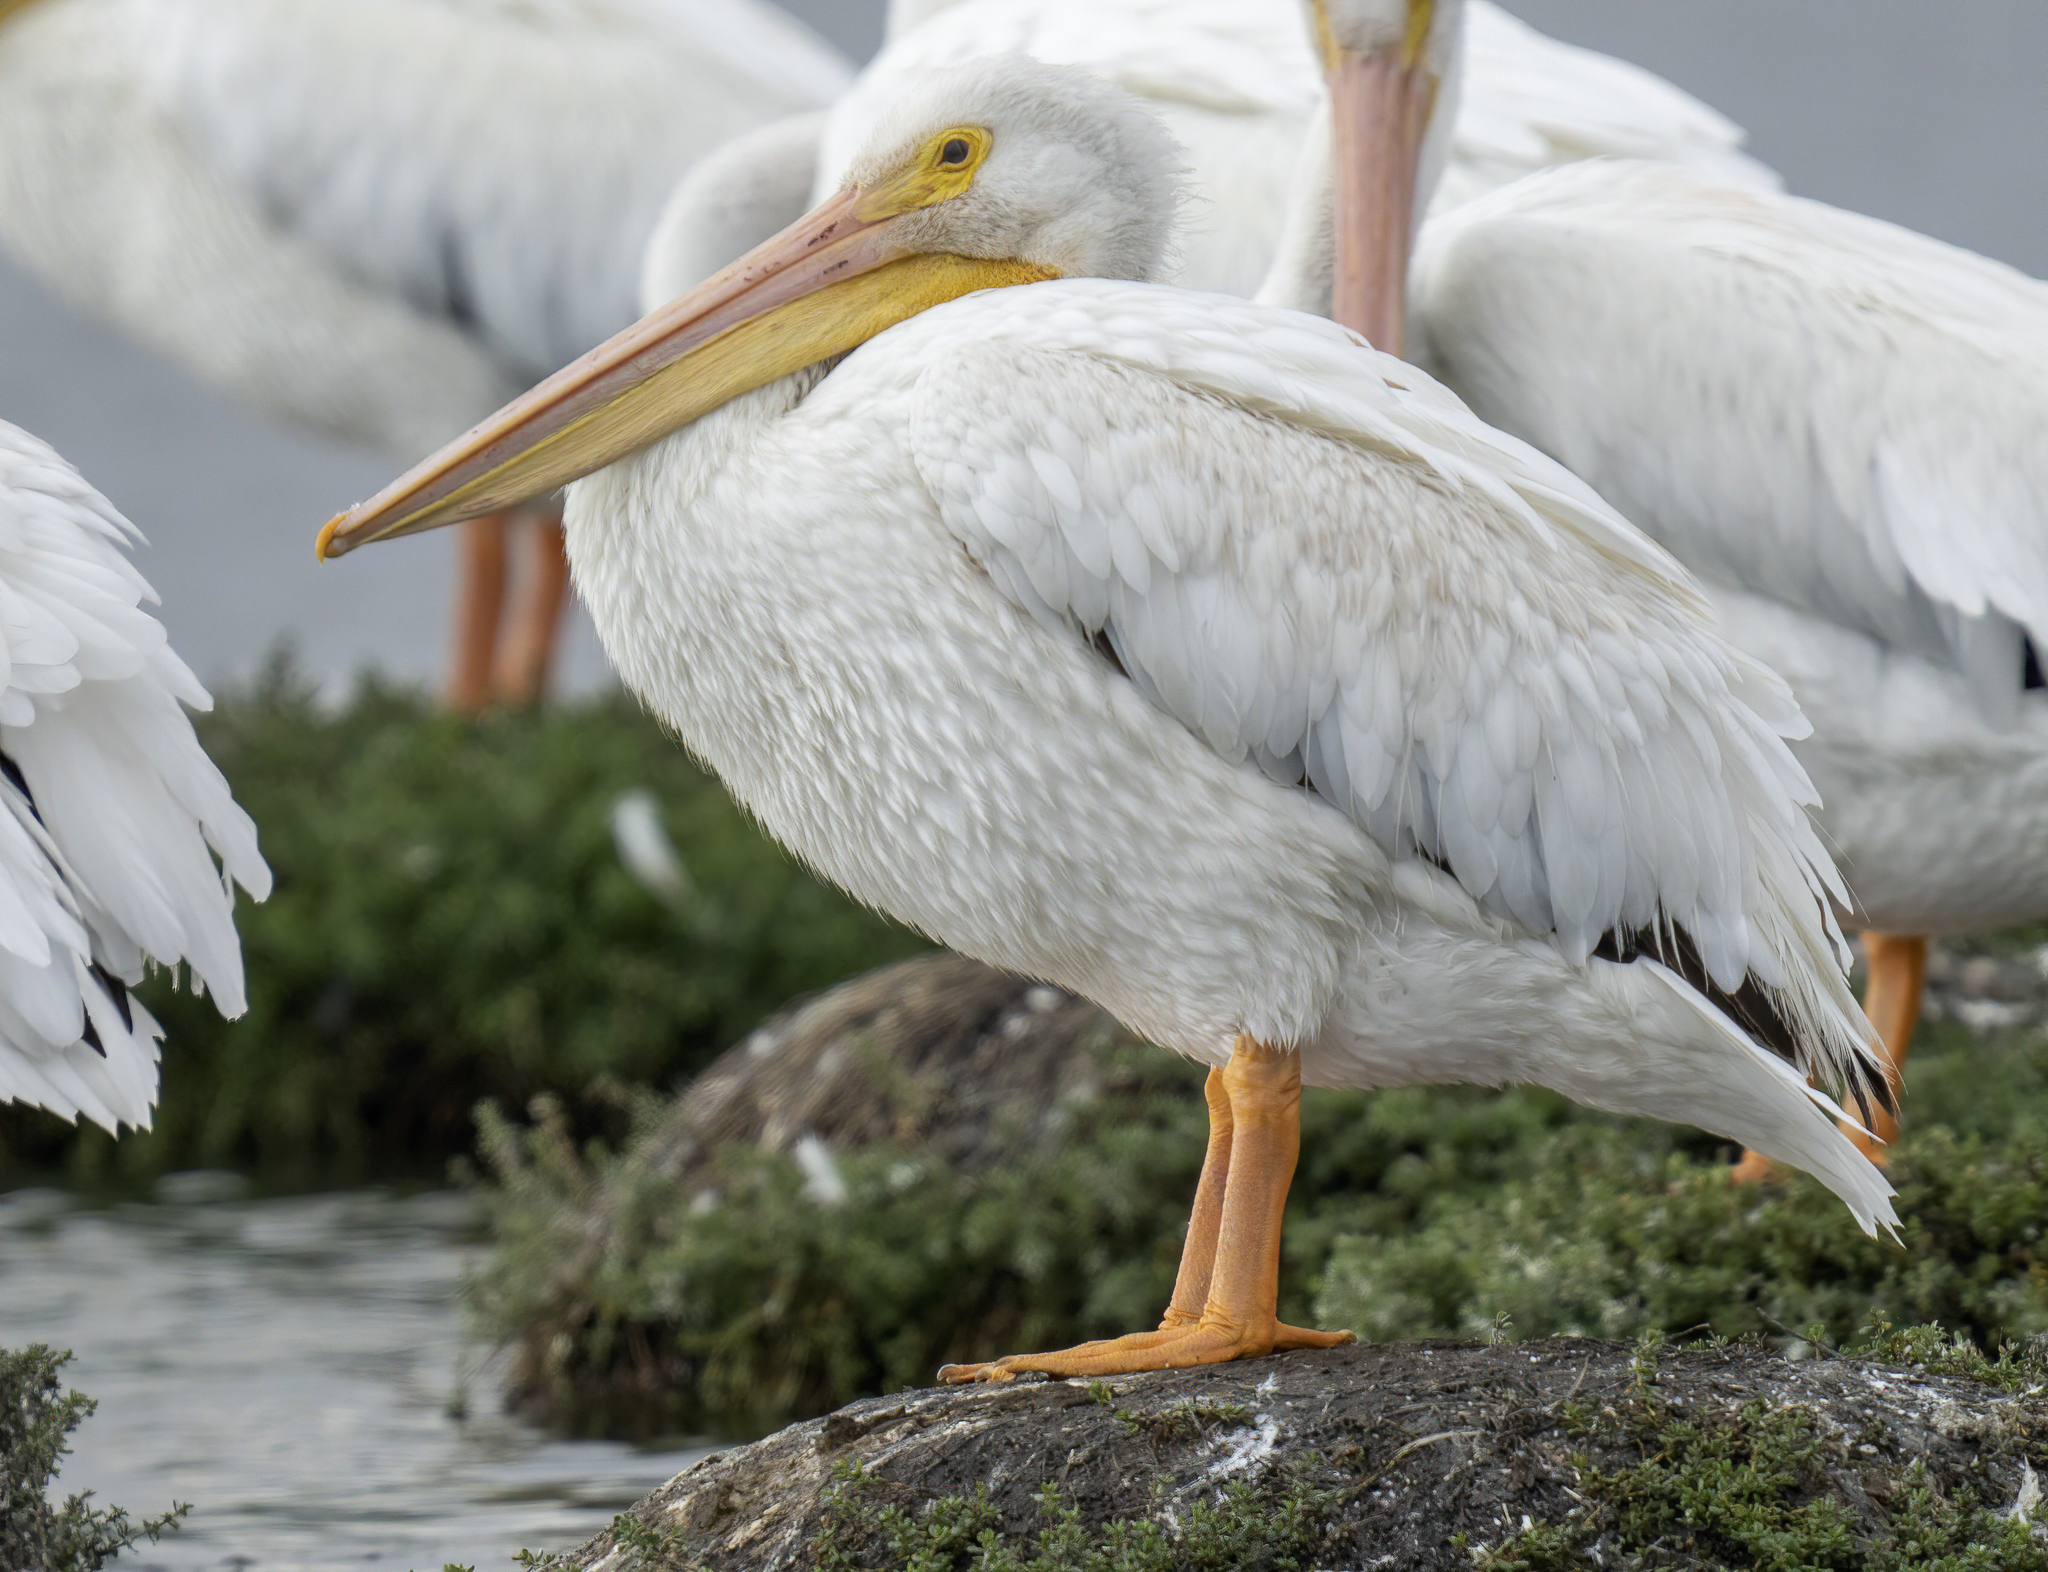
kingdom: Animalia
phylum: Chordata
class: Aves
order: Pelecaniformes
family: Pelecanidae
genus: Pelecanus
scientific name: Pelecanus erythrorhynchos
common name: American white pelican
